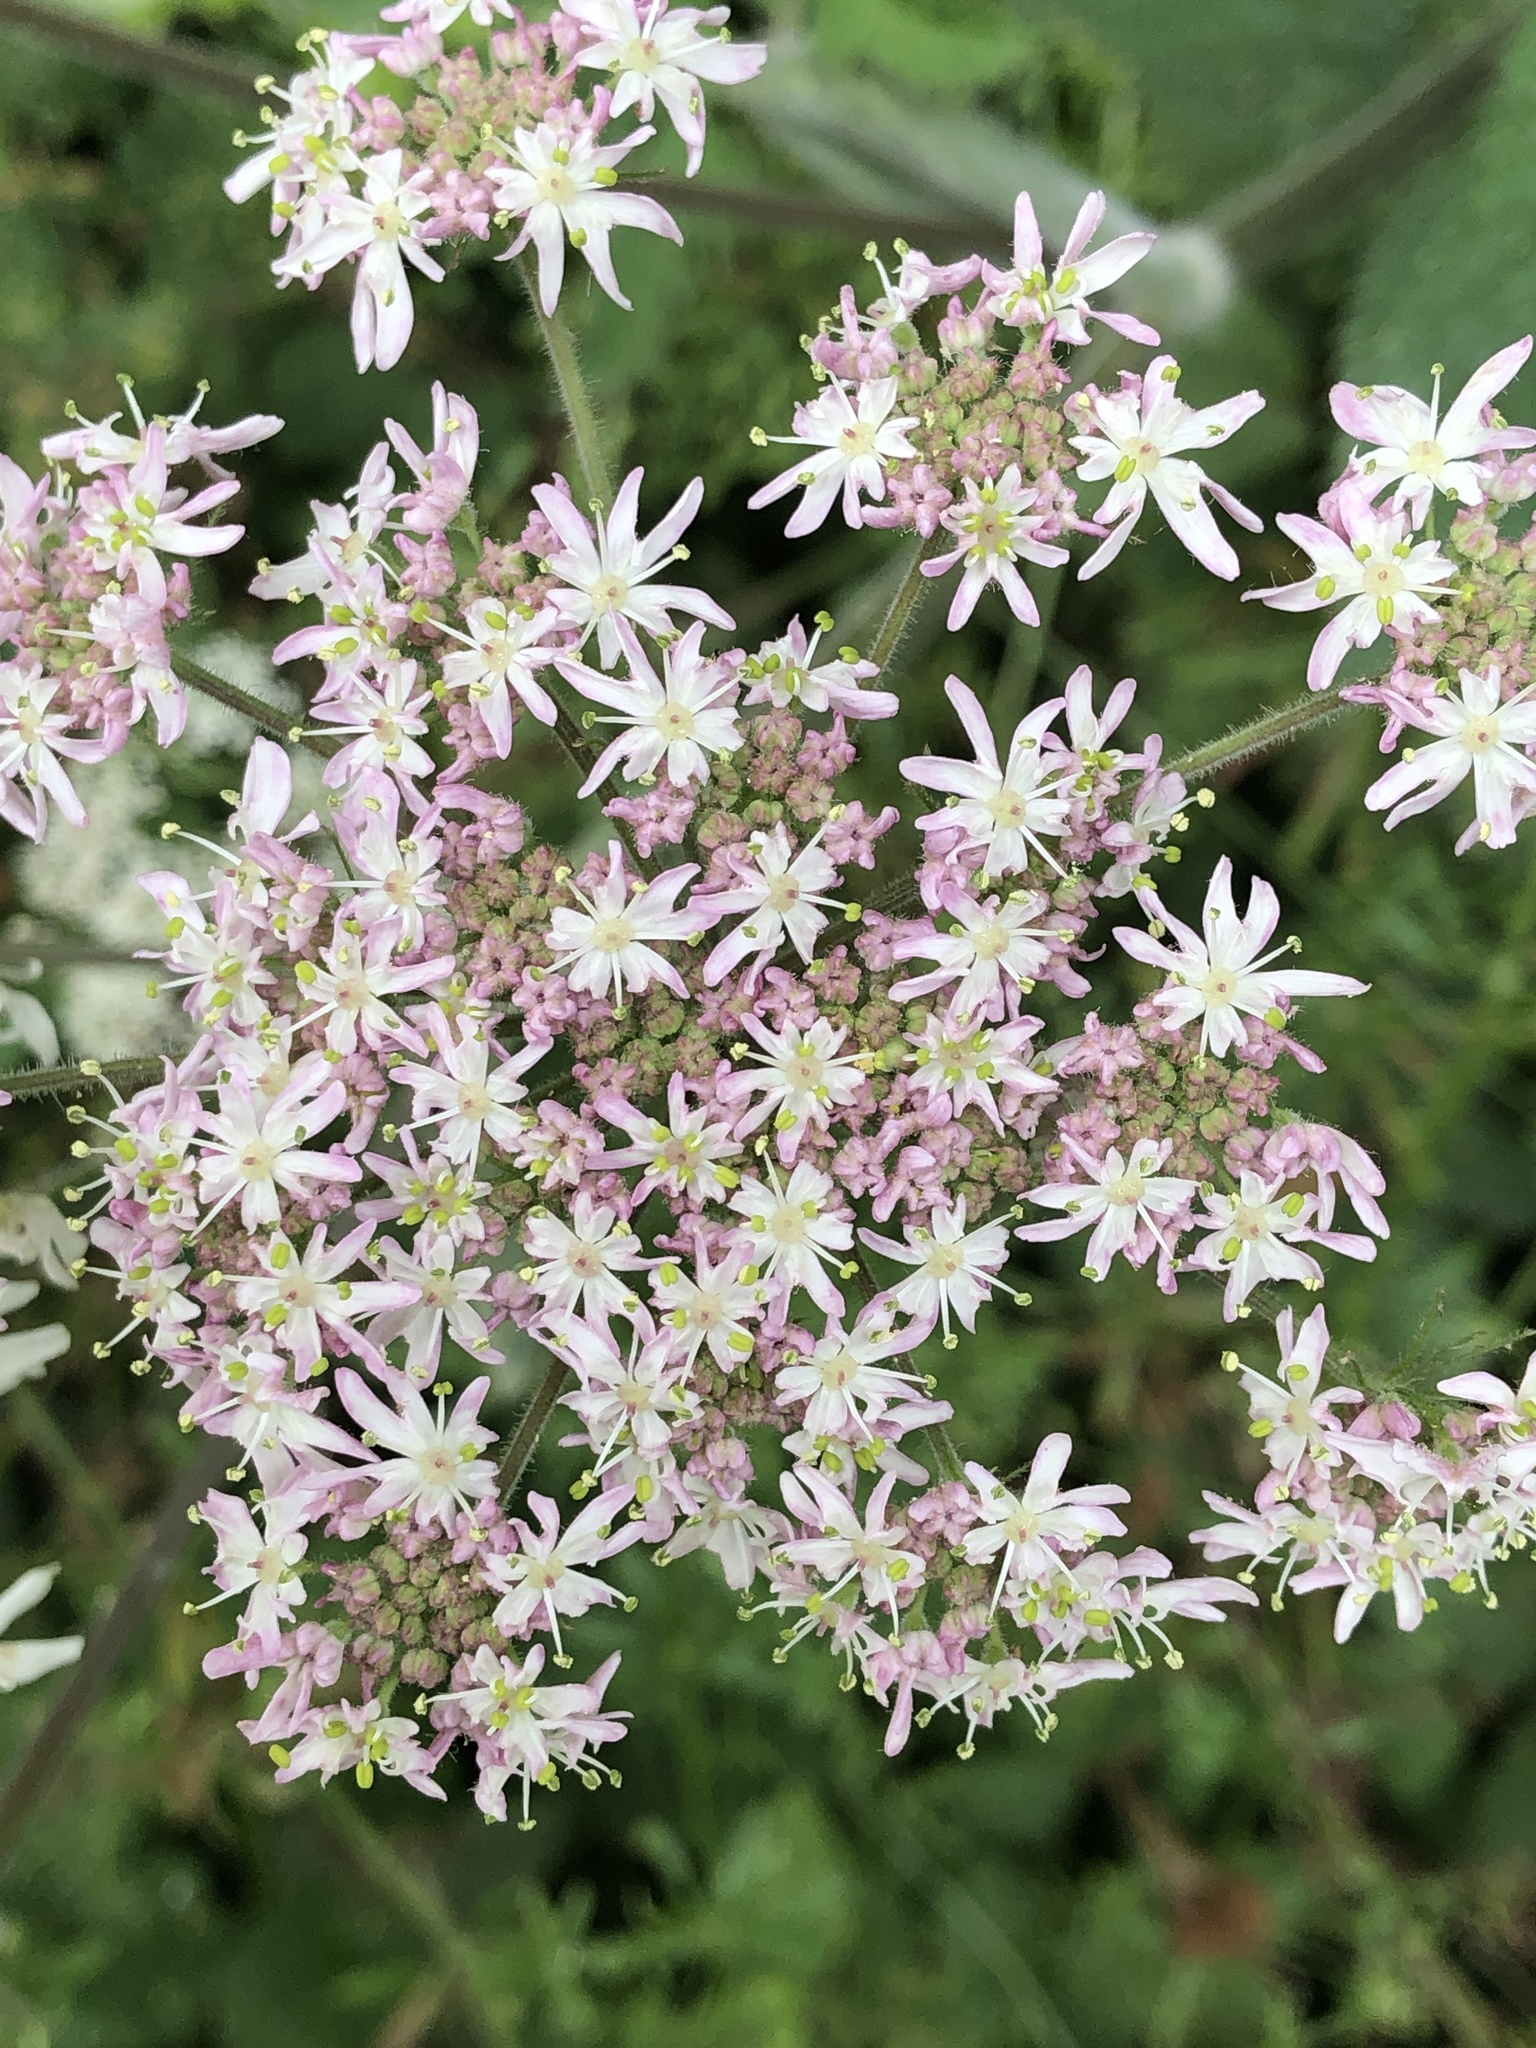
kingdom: Plantae
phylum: Tracheophyta
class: Magnoliopsida
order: Apiales
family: Apiaceae
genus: Heracleum
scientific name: Heracleum sphondylium
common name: Hogweed
